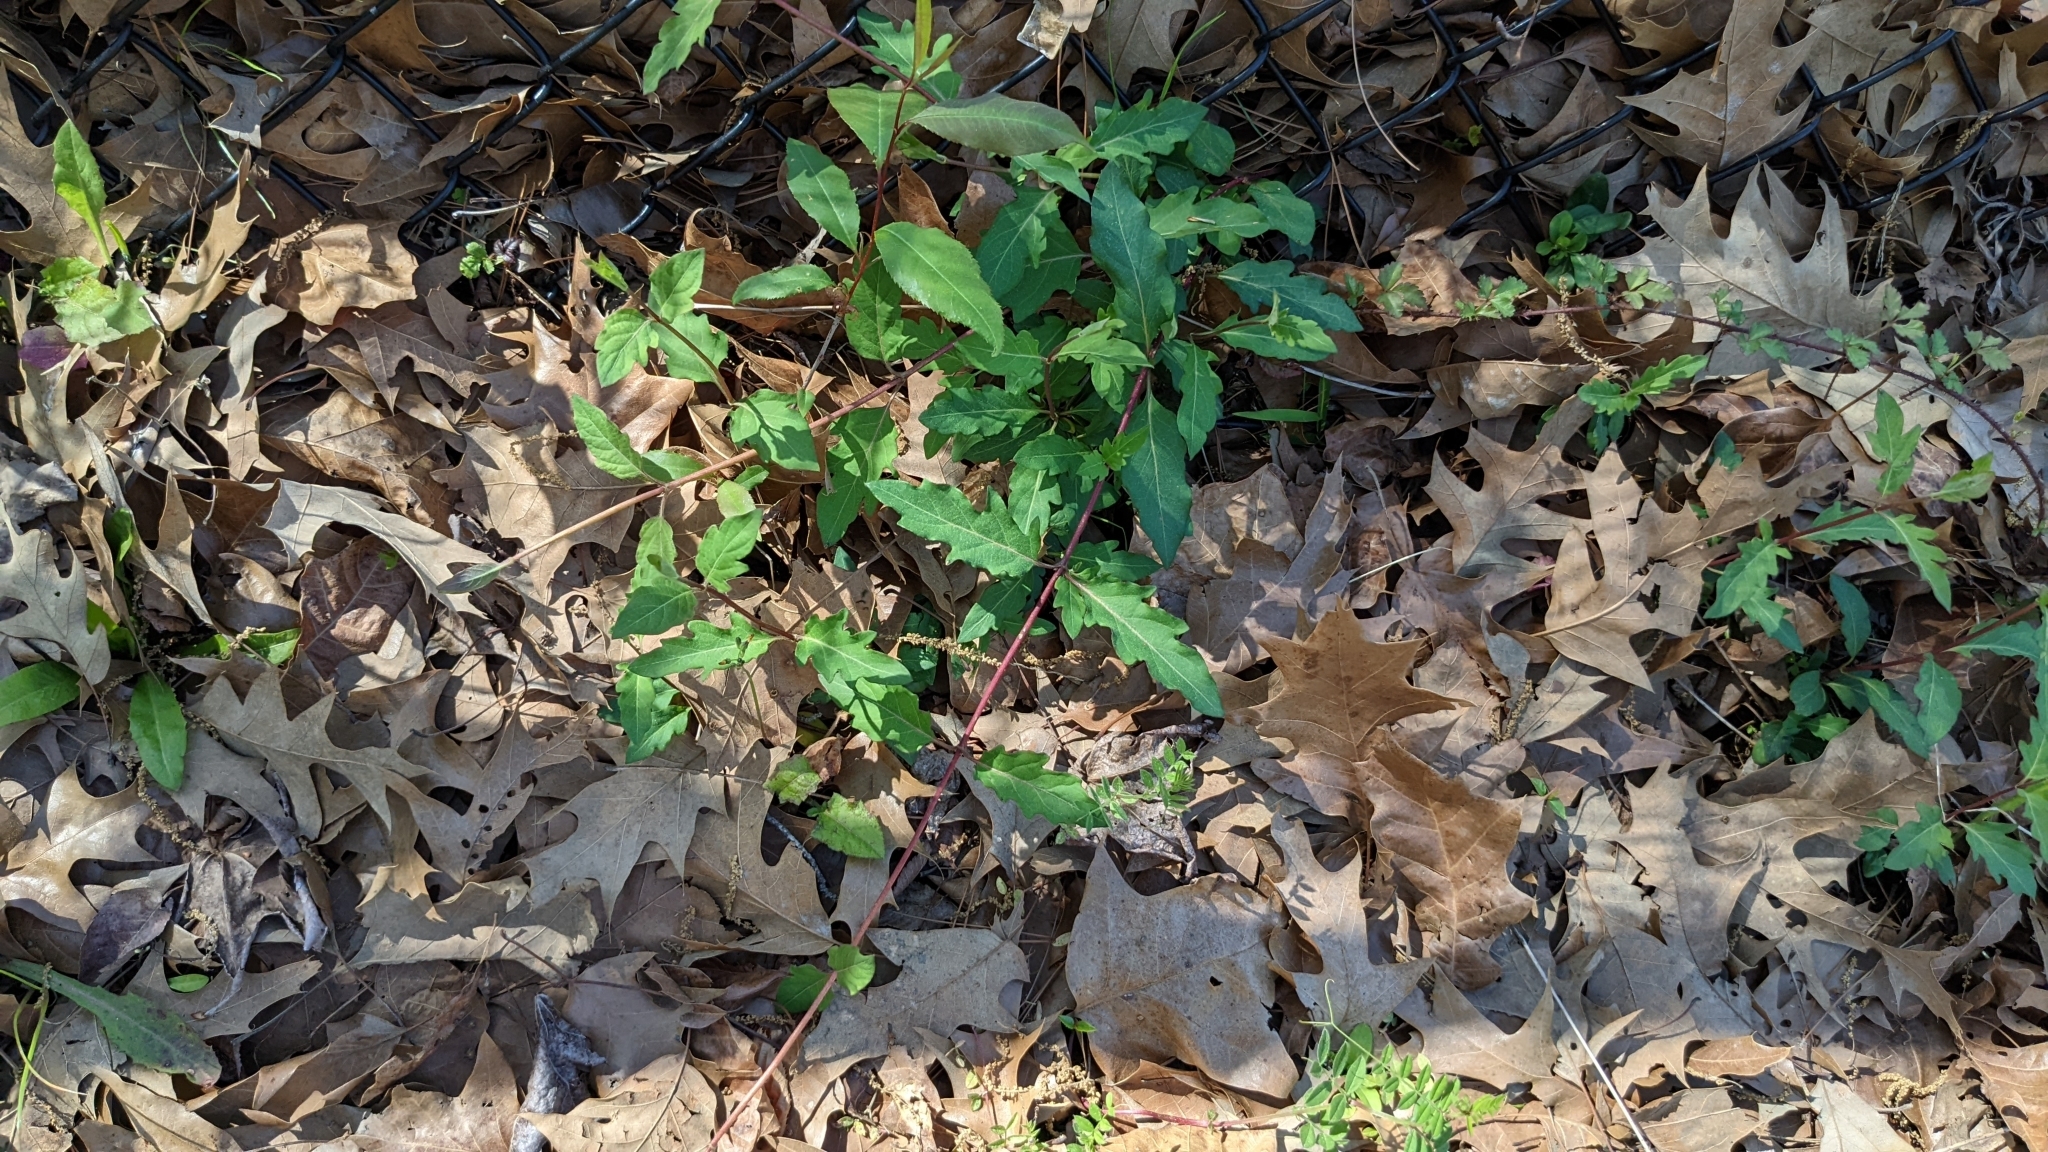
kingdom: Plantae
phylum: Tracheophyta
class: Magnoliopsida
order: Dipsacales
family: Caprifoliaceae
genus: Lonicera
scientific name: Lonicera japonica
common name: Japanese honeysuckle
